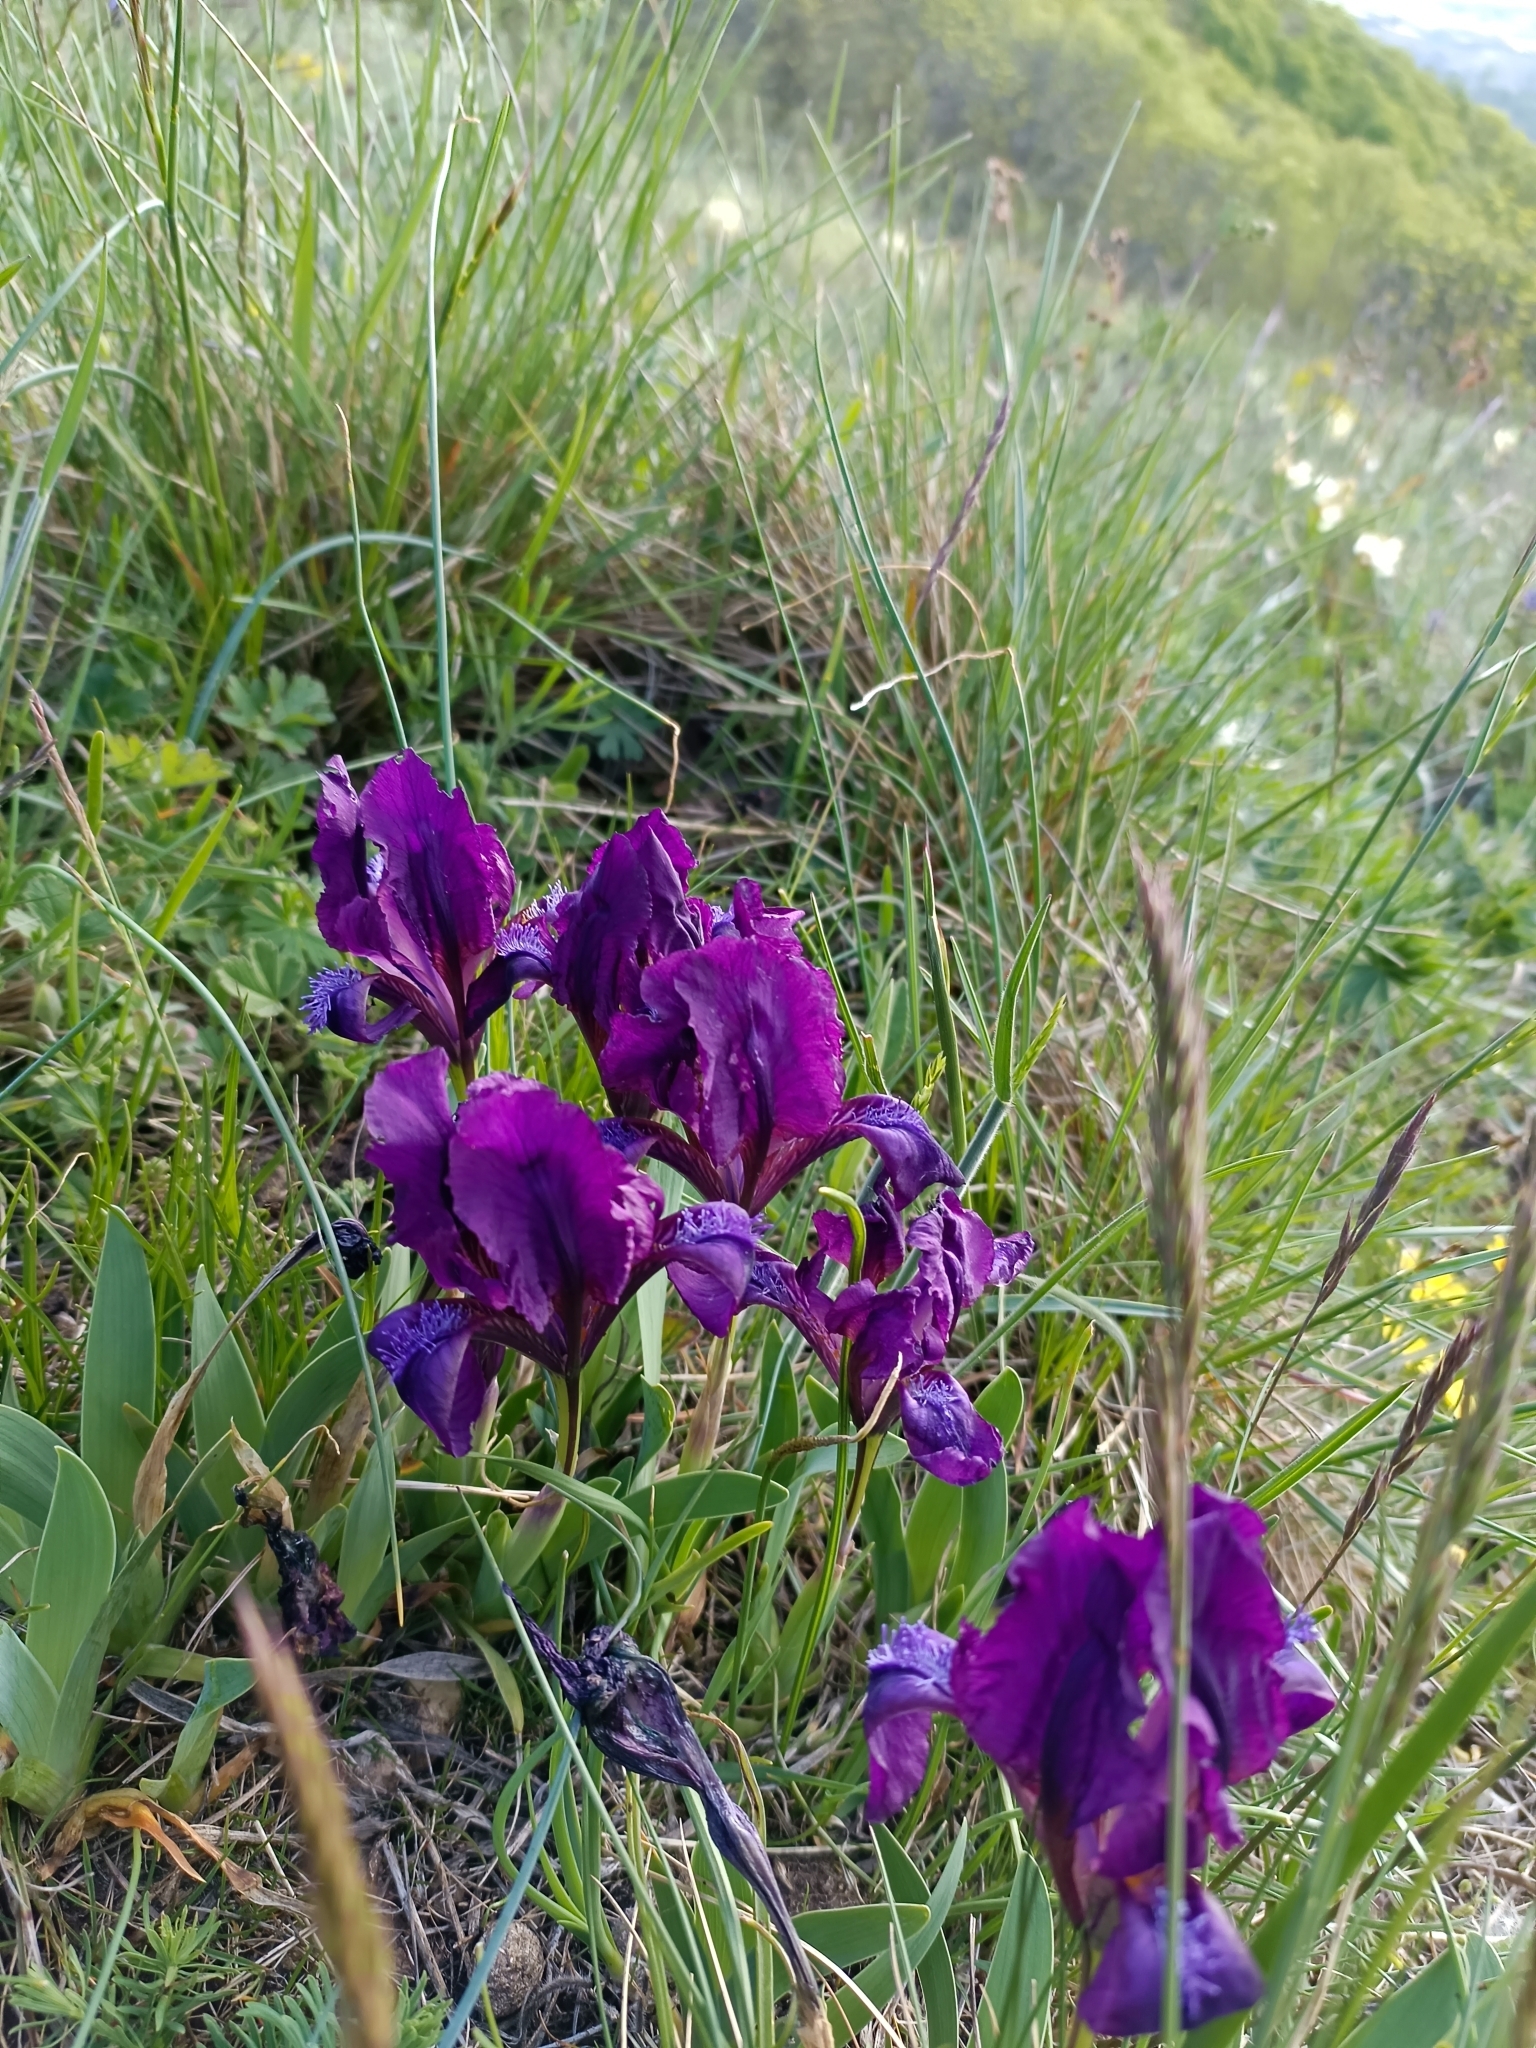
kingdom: Plantae
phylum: Tracheophyta
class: Liliopsida
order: Asparagales
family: Iridaceae
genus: Iris
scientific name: Iris pumila
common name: Dwarf iris
